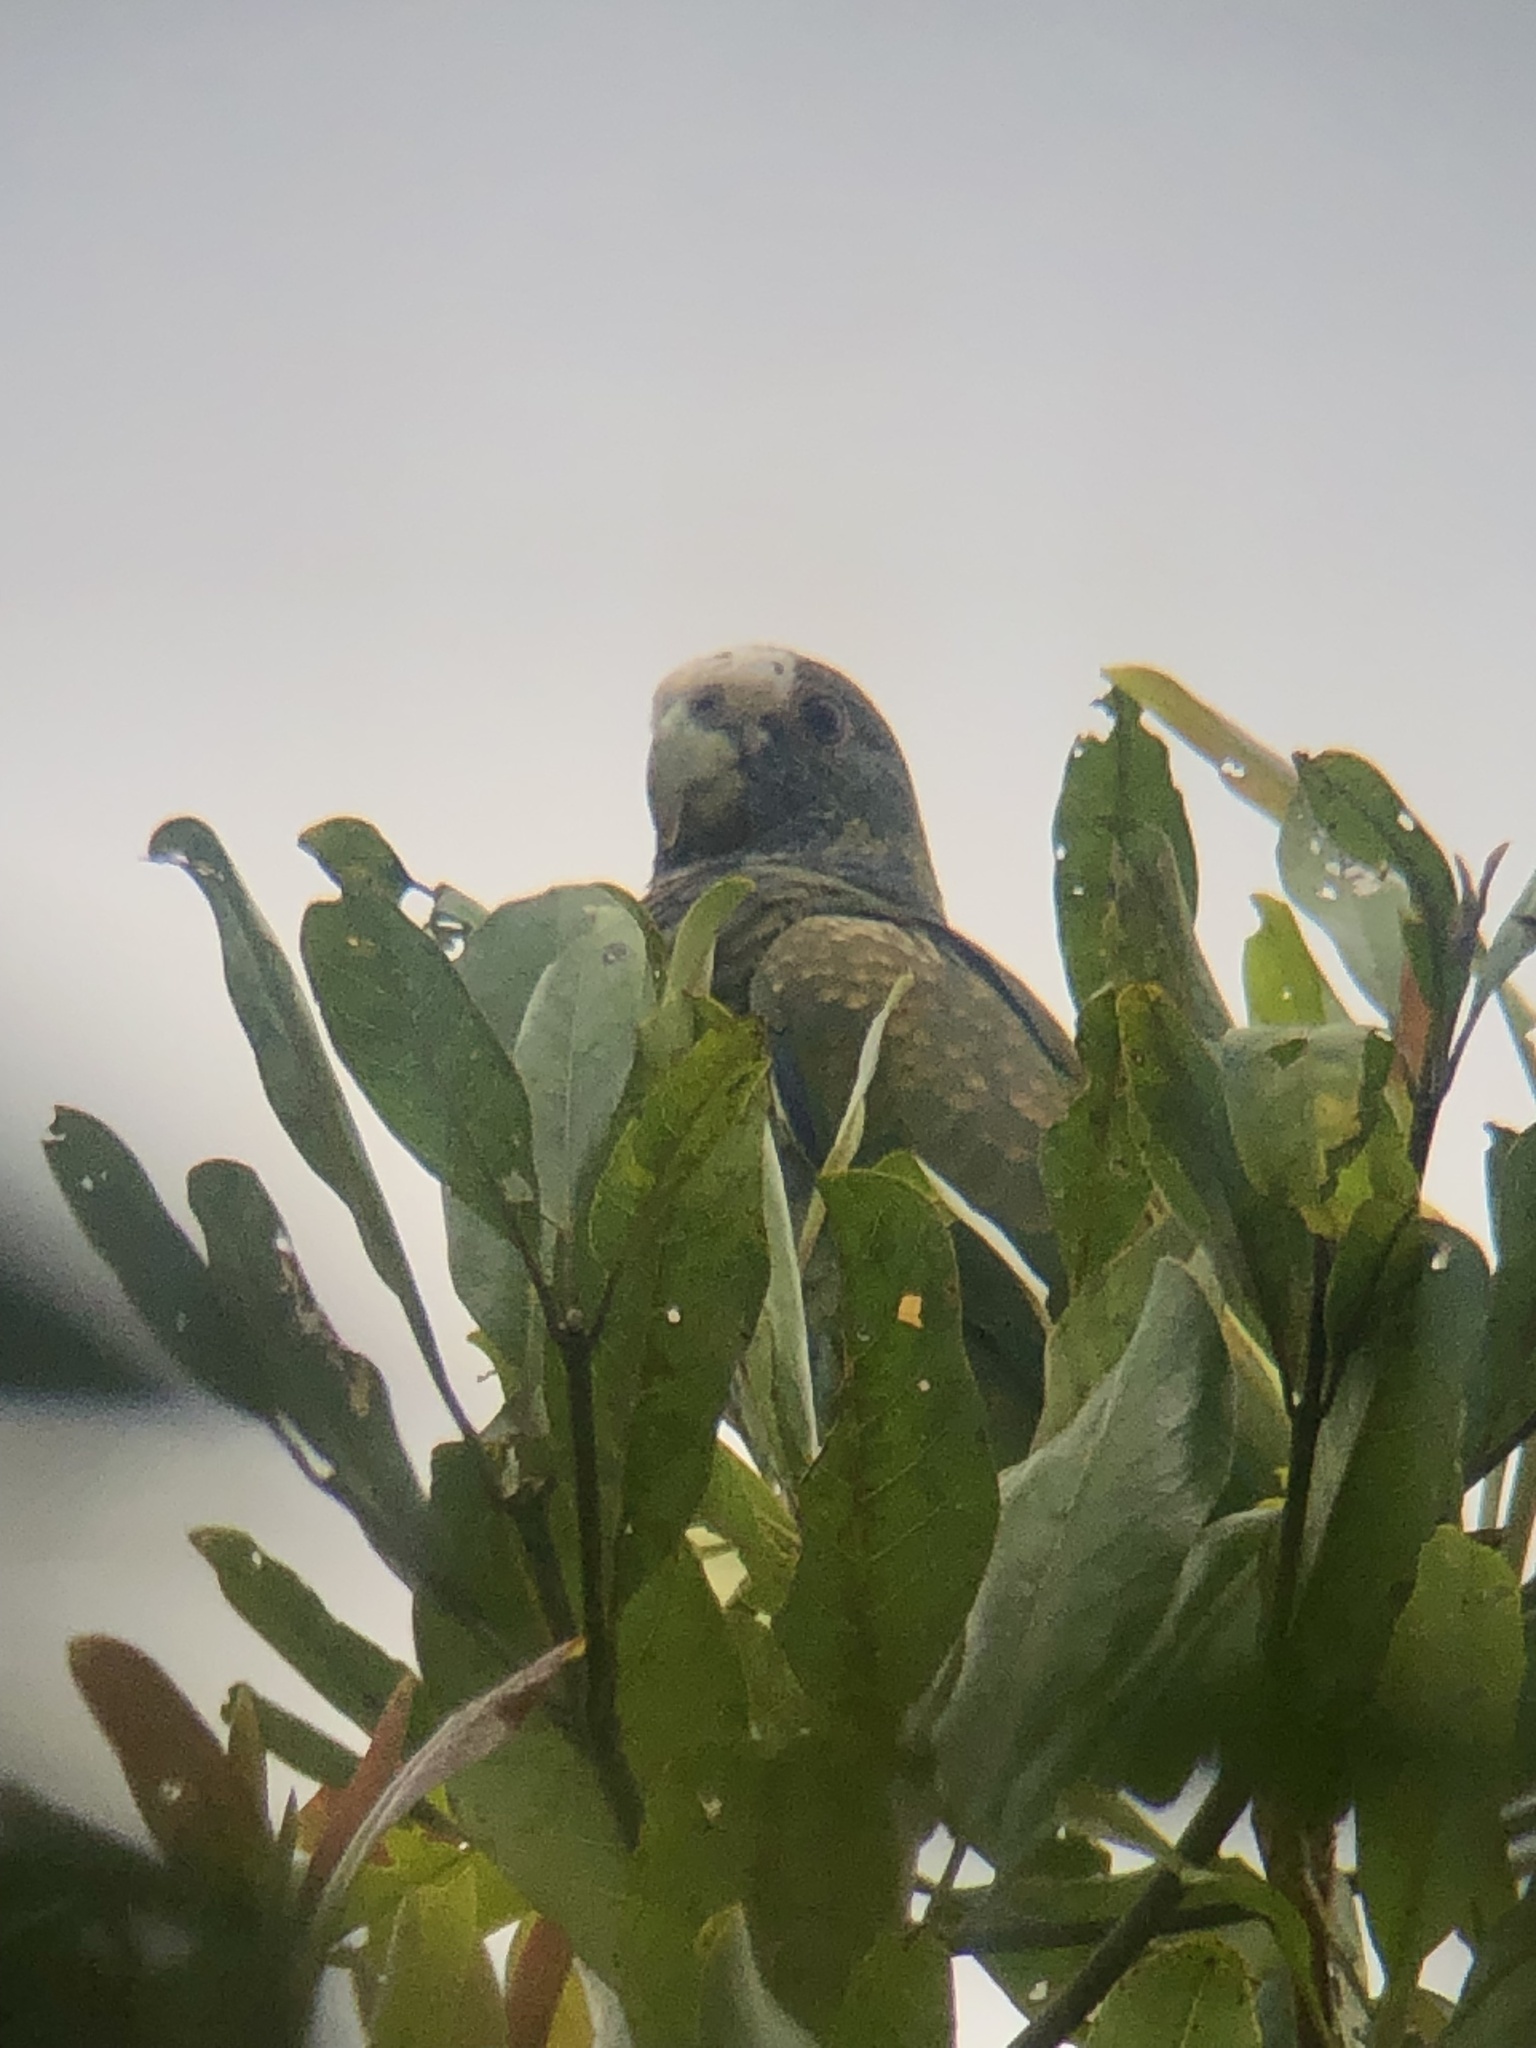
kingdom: Animalia
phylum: Chordata
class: Aves
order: Psittaciformes
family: Psittacidae
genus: Pionus
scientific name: Pionus senilis
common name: White-crowned parrot
